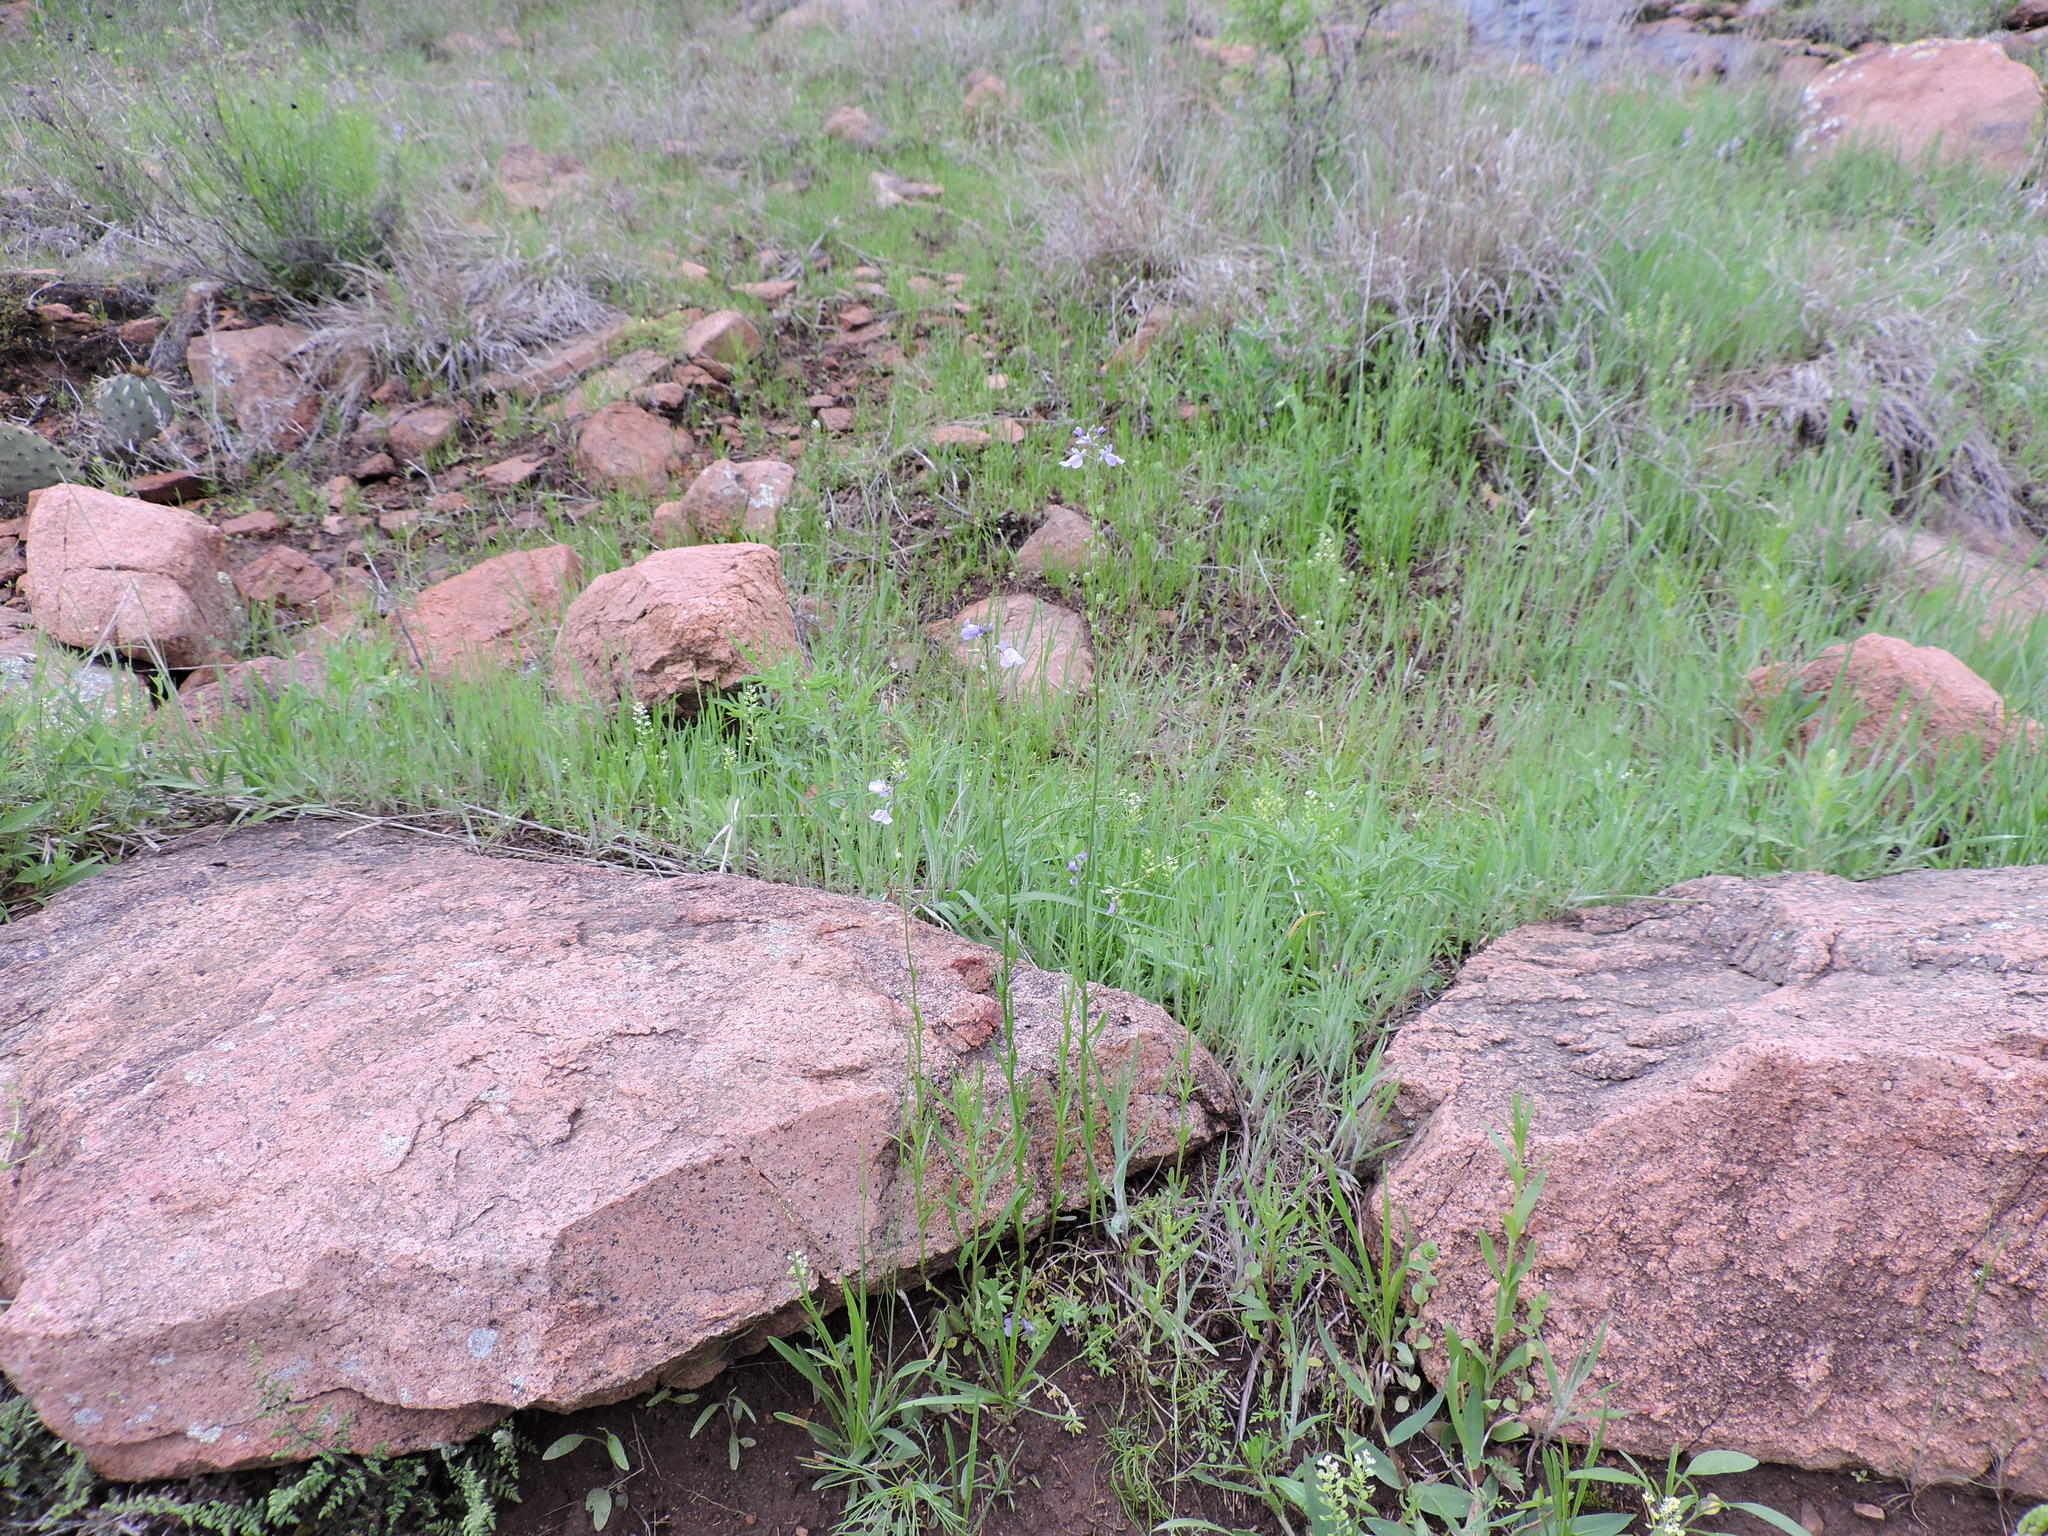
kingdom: Plantae
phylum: Tracheophyta
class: Magnoliopsida
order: Lamiales
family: Plantaginaceae
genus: Nuttallanthus
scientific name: Nuttallanthus texanus
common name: Texas toadflax
